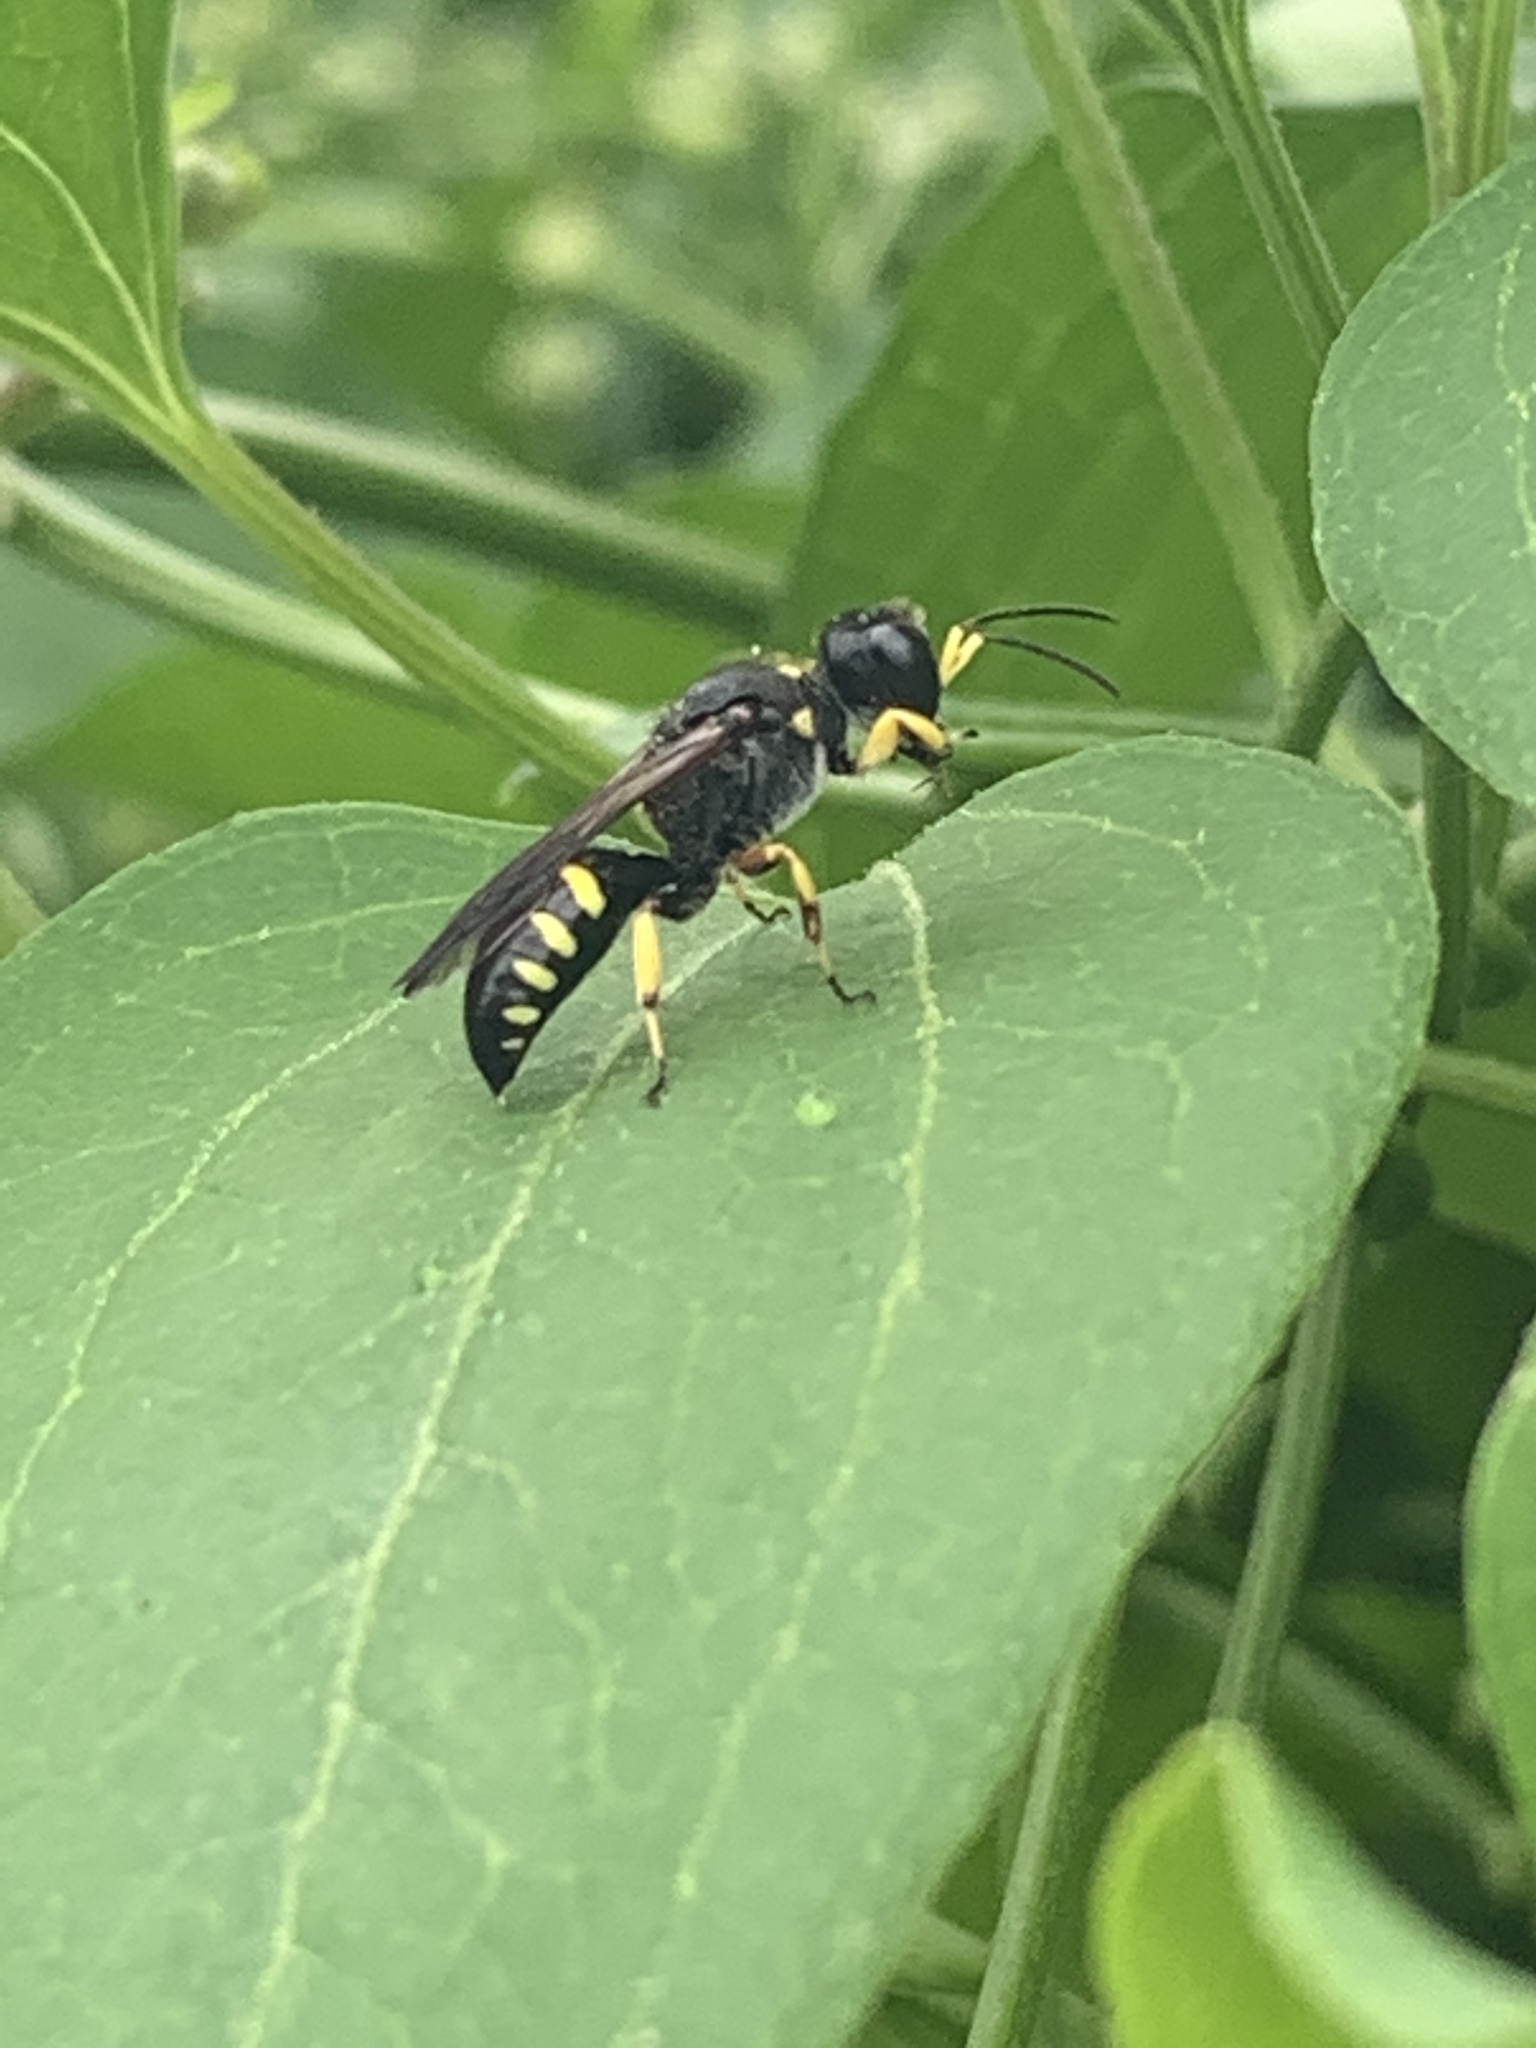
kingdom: Animalia
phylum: Arthropoda
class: Insecta
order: Hymenoptera
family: Crabronidae
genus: Ectemnius
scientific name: Ectemnius maculosus
